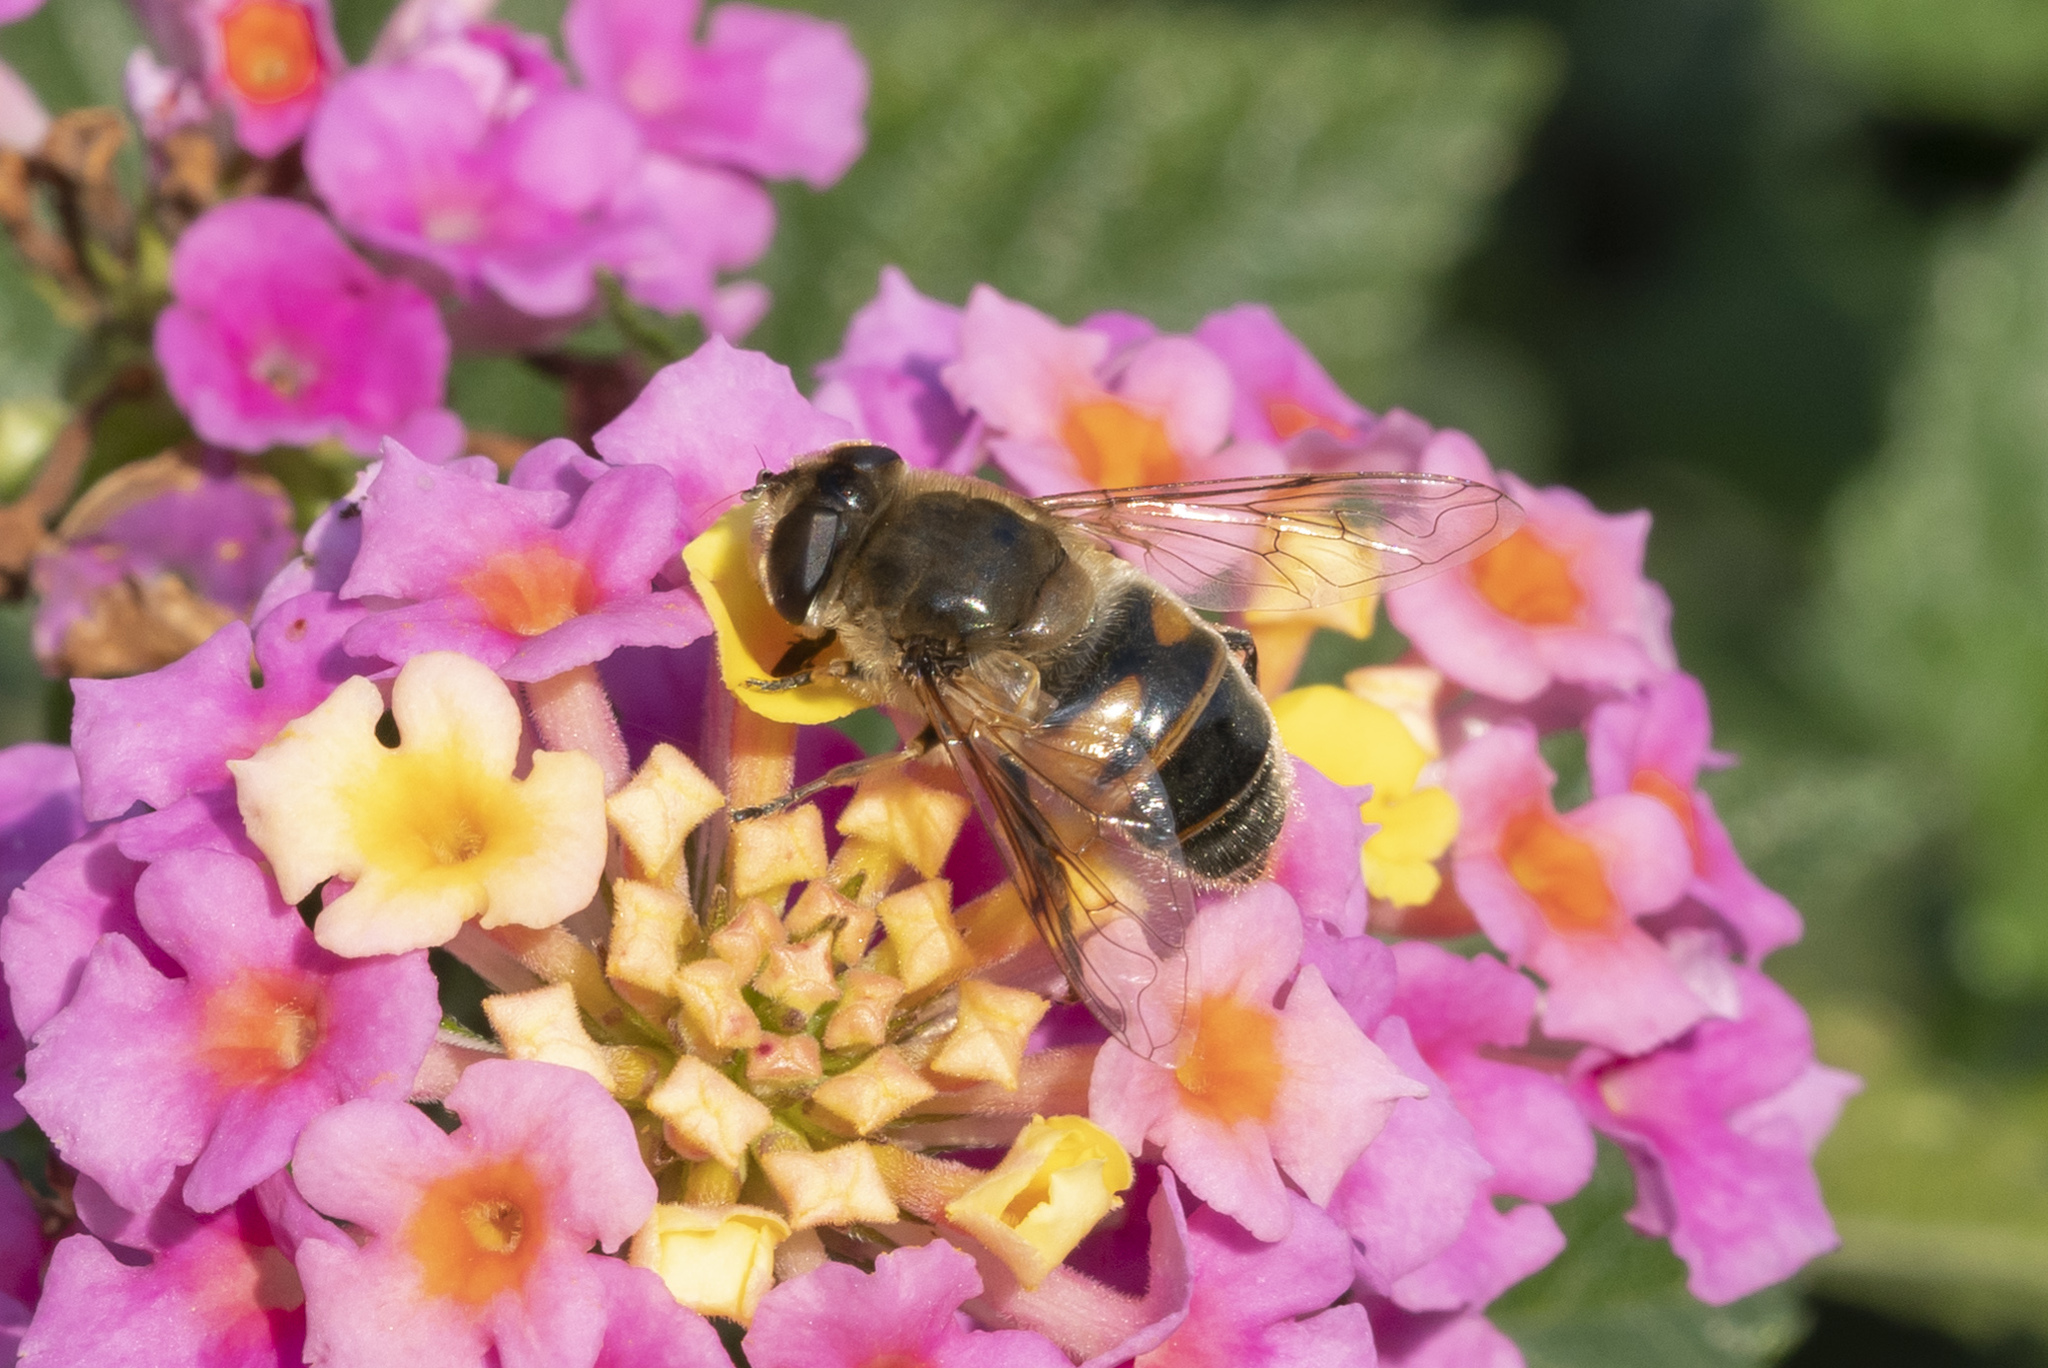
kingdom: Animalia
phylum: Arthropoda
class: Insecta
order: Diptera
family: Syrphidae
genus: Eristalis
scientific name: Eristalis tenax
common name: Drone fly
